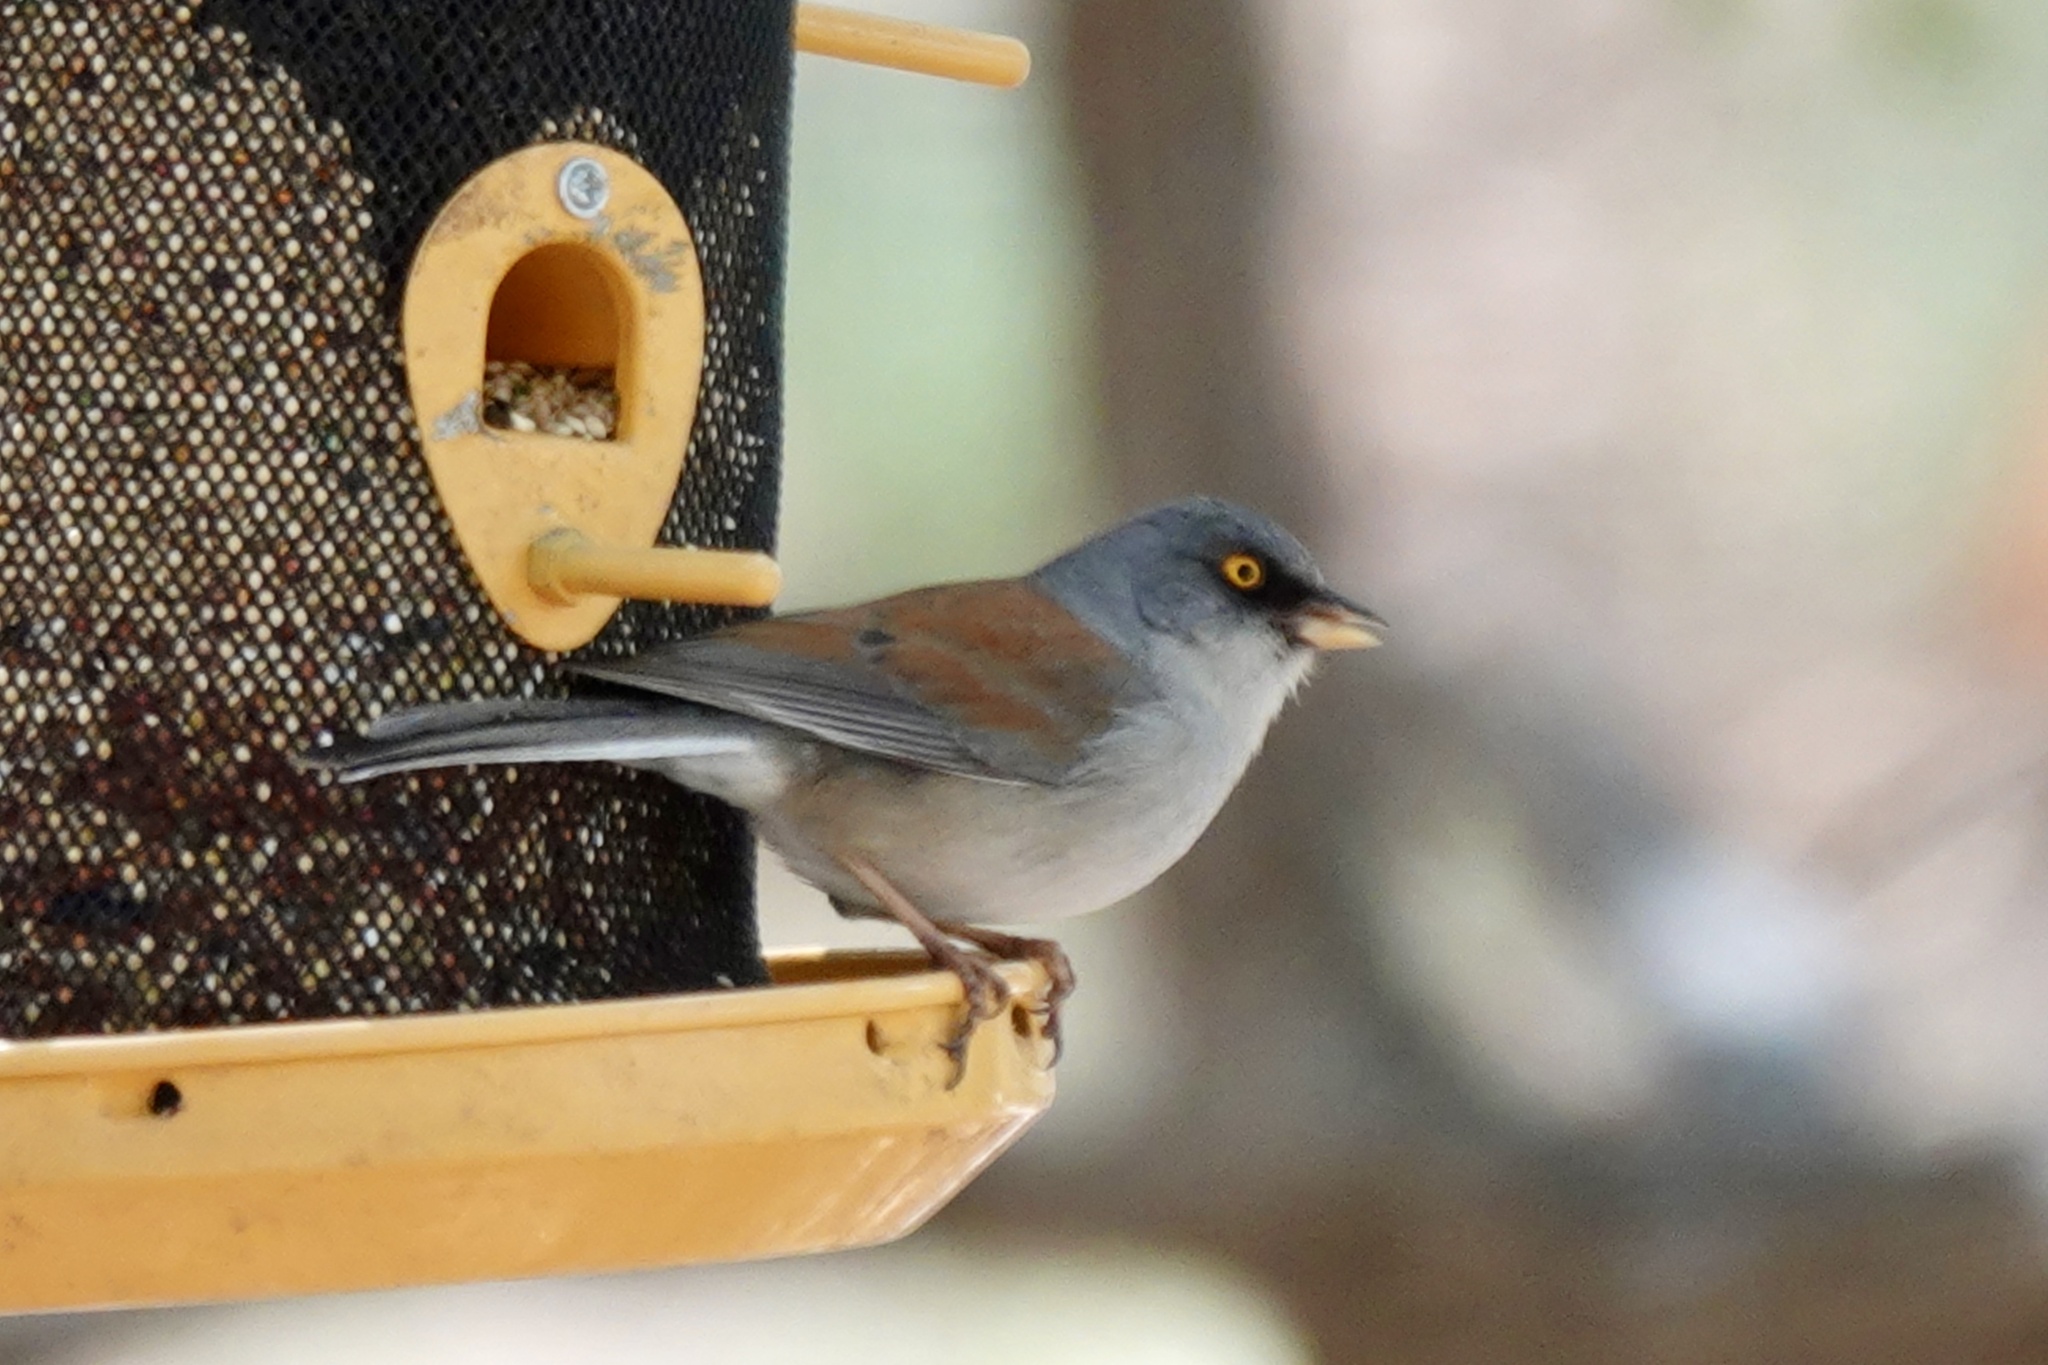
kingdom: Animalia
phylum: Chordata
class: Aves
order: Passeriformes
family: Passerellidae
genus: Junco
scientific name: Junco phaeonotus
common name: Yellow-eyed junco
